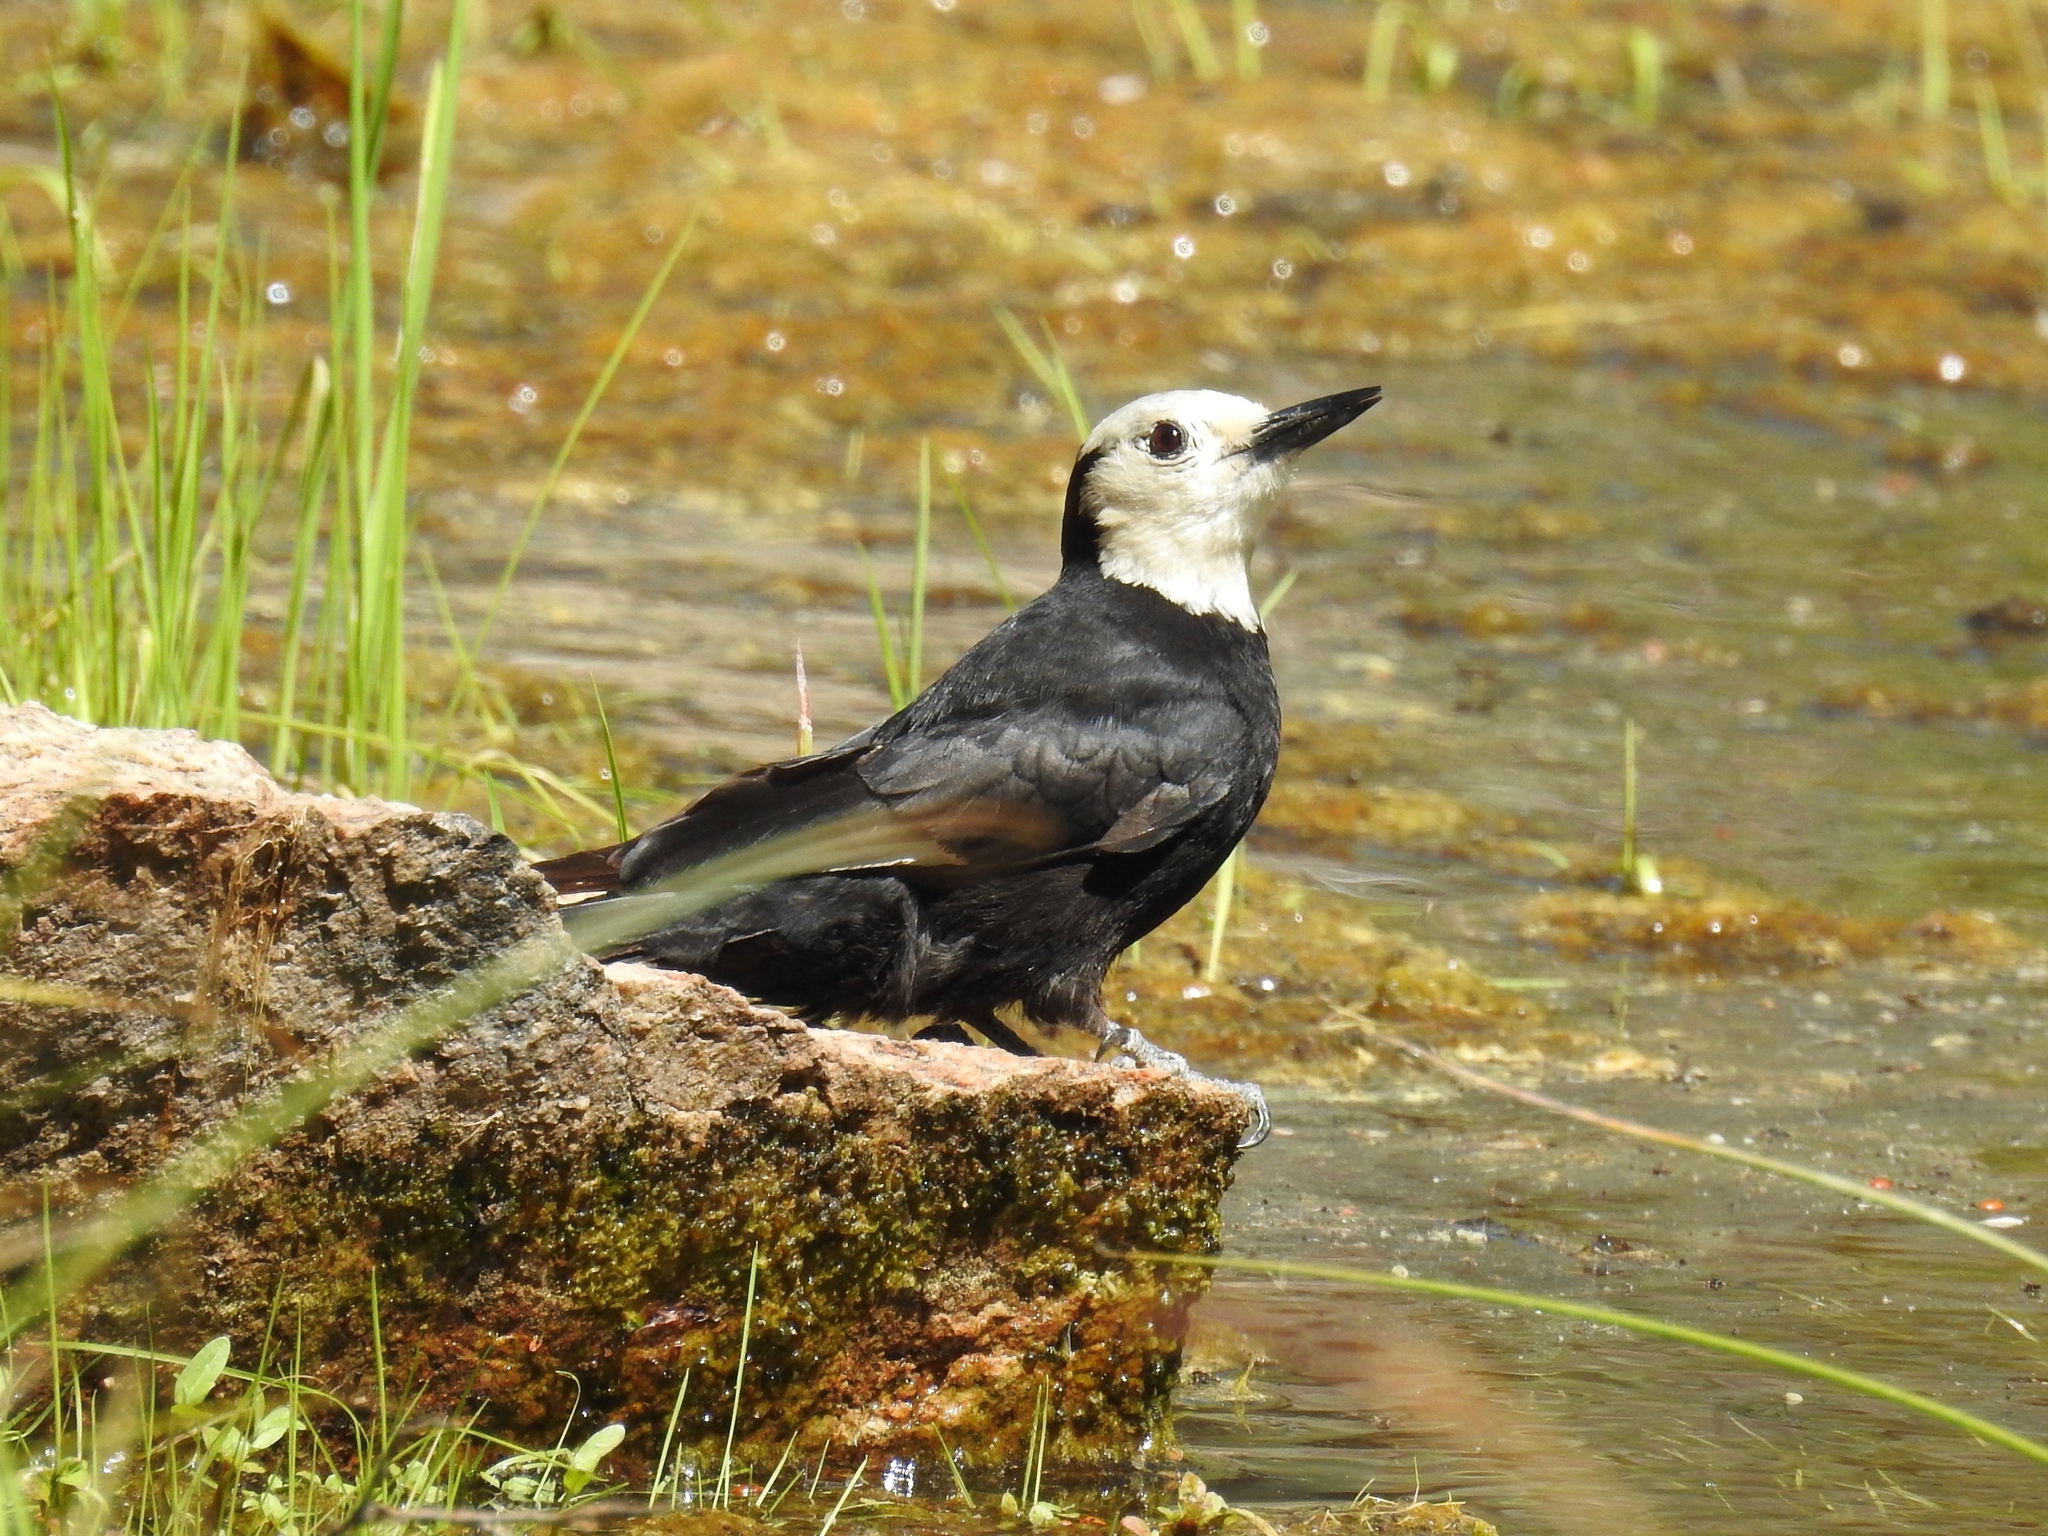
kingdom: Animalia
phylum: Chordata
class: Aves
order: Piciformes
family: Picidae
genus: Leuconotopicus
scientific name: Leuconotopicus albolarvatus
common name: White-headed woodpecker
